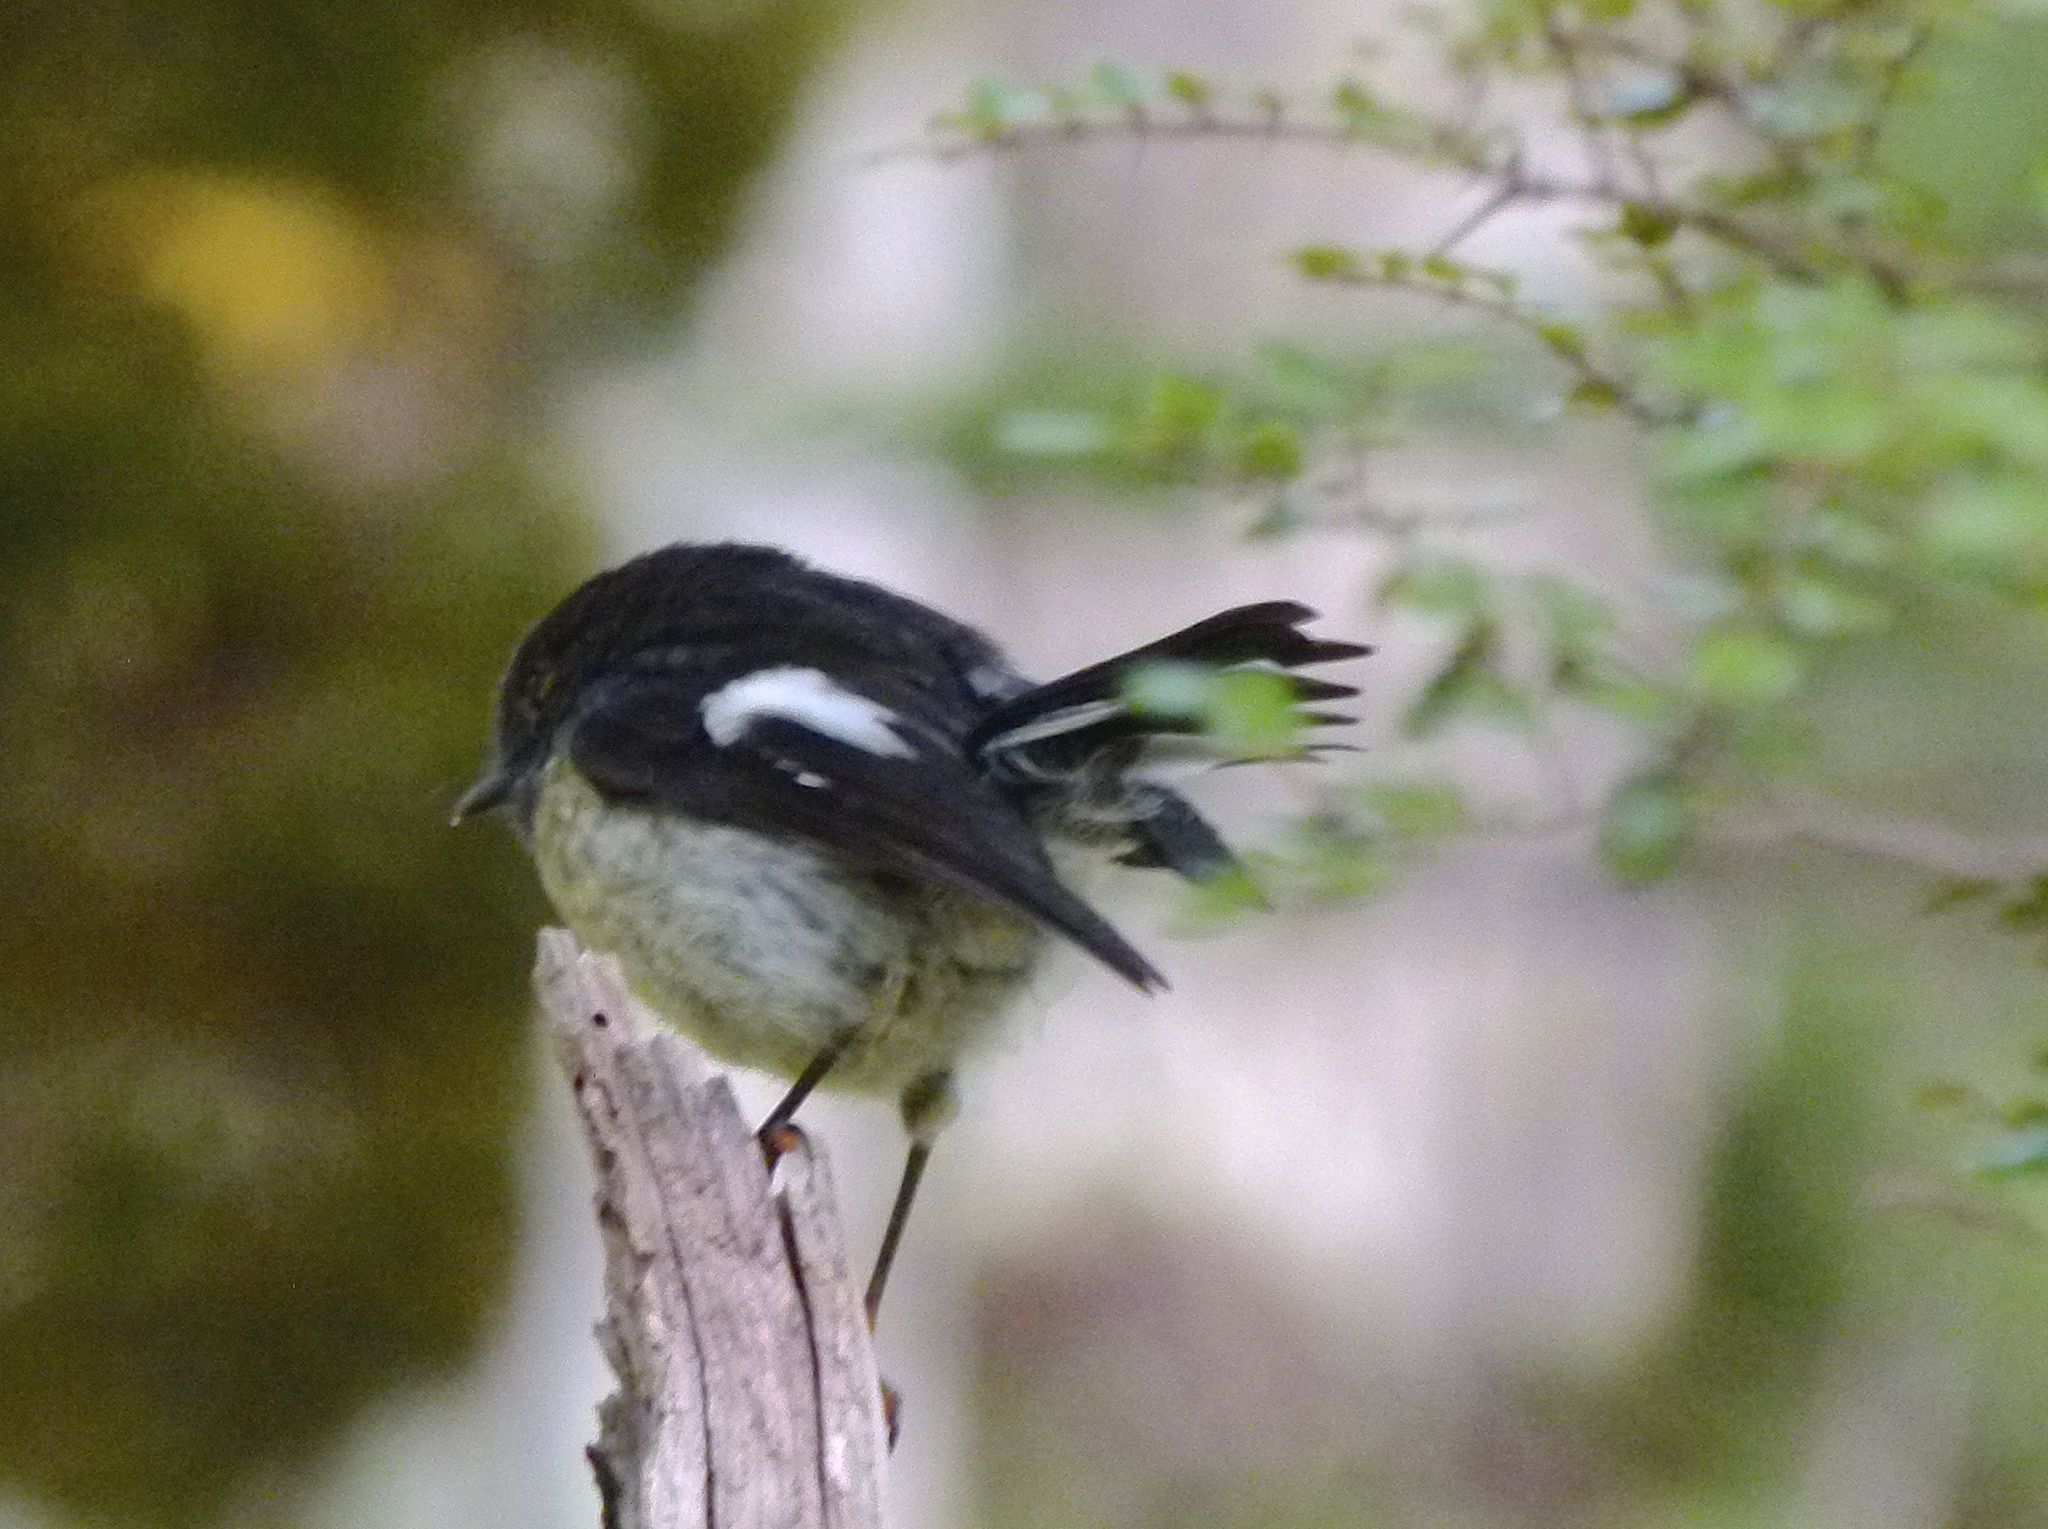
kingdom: Animalia
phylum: Chordata
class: Aves
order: Passeriformes
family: Petroicidae
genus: Petroica
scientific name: Petroica macrocephala
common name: Tomtit
